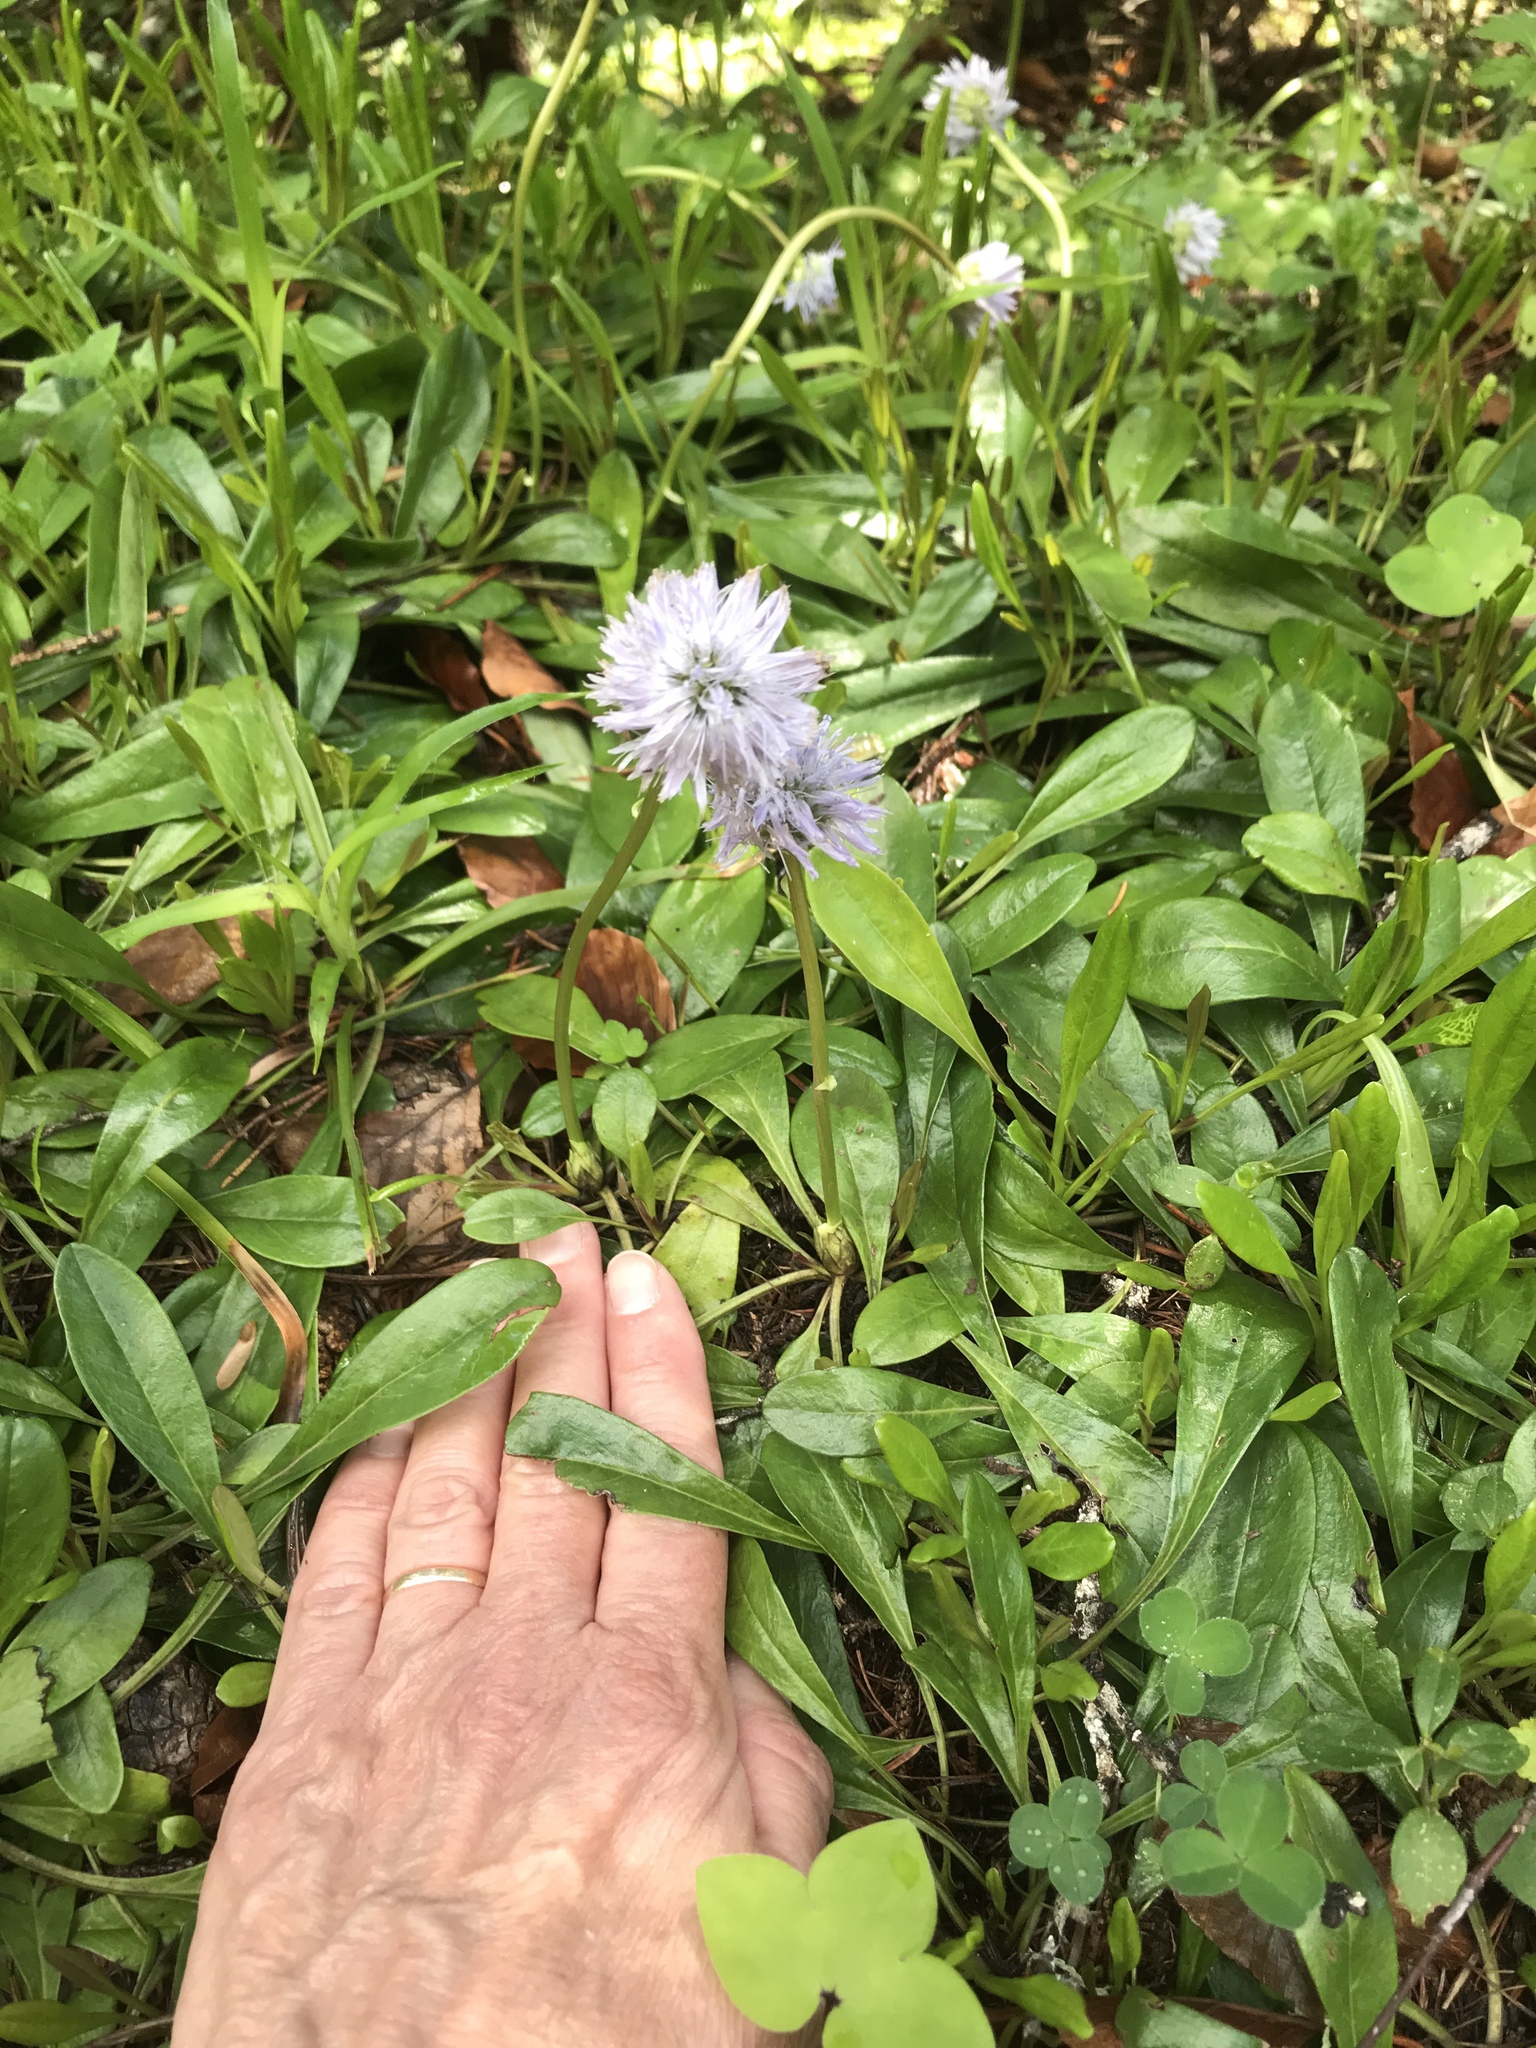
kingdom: Plantae
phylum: Tracheophyta
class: Magnoliopsida
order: Lamiales
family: Plantaginaceae
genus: Globularia
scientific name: Globularia nudicaulis
